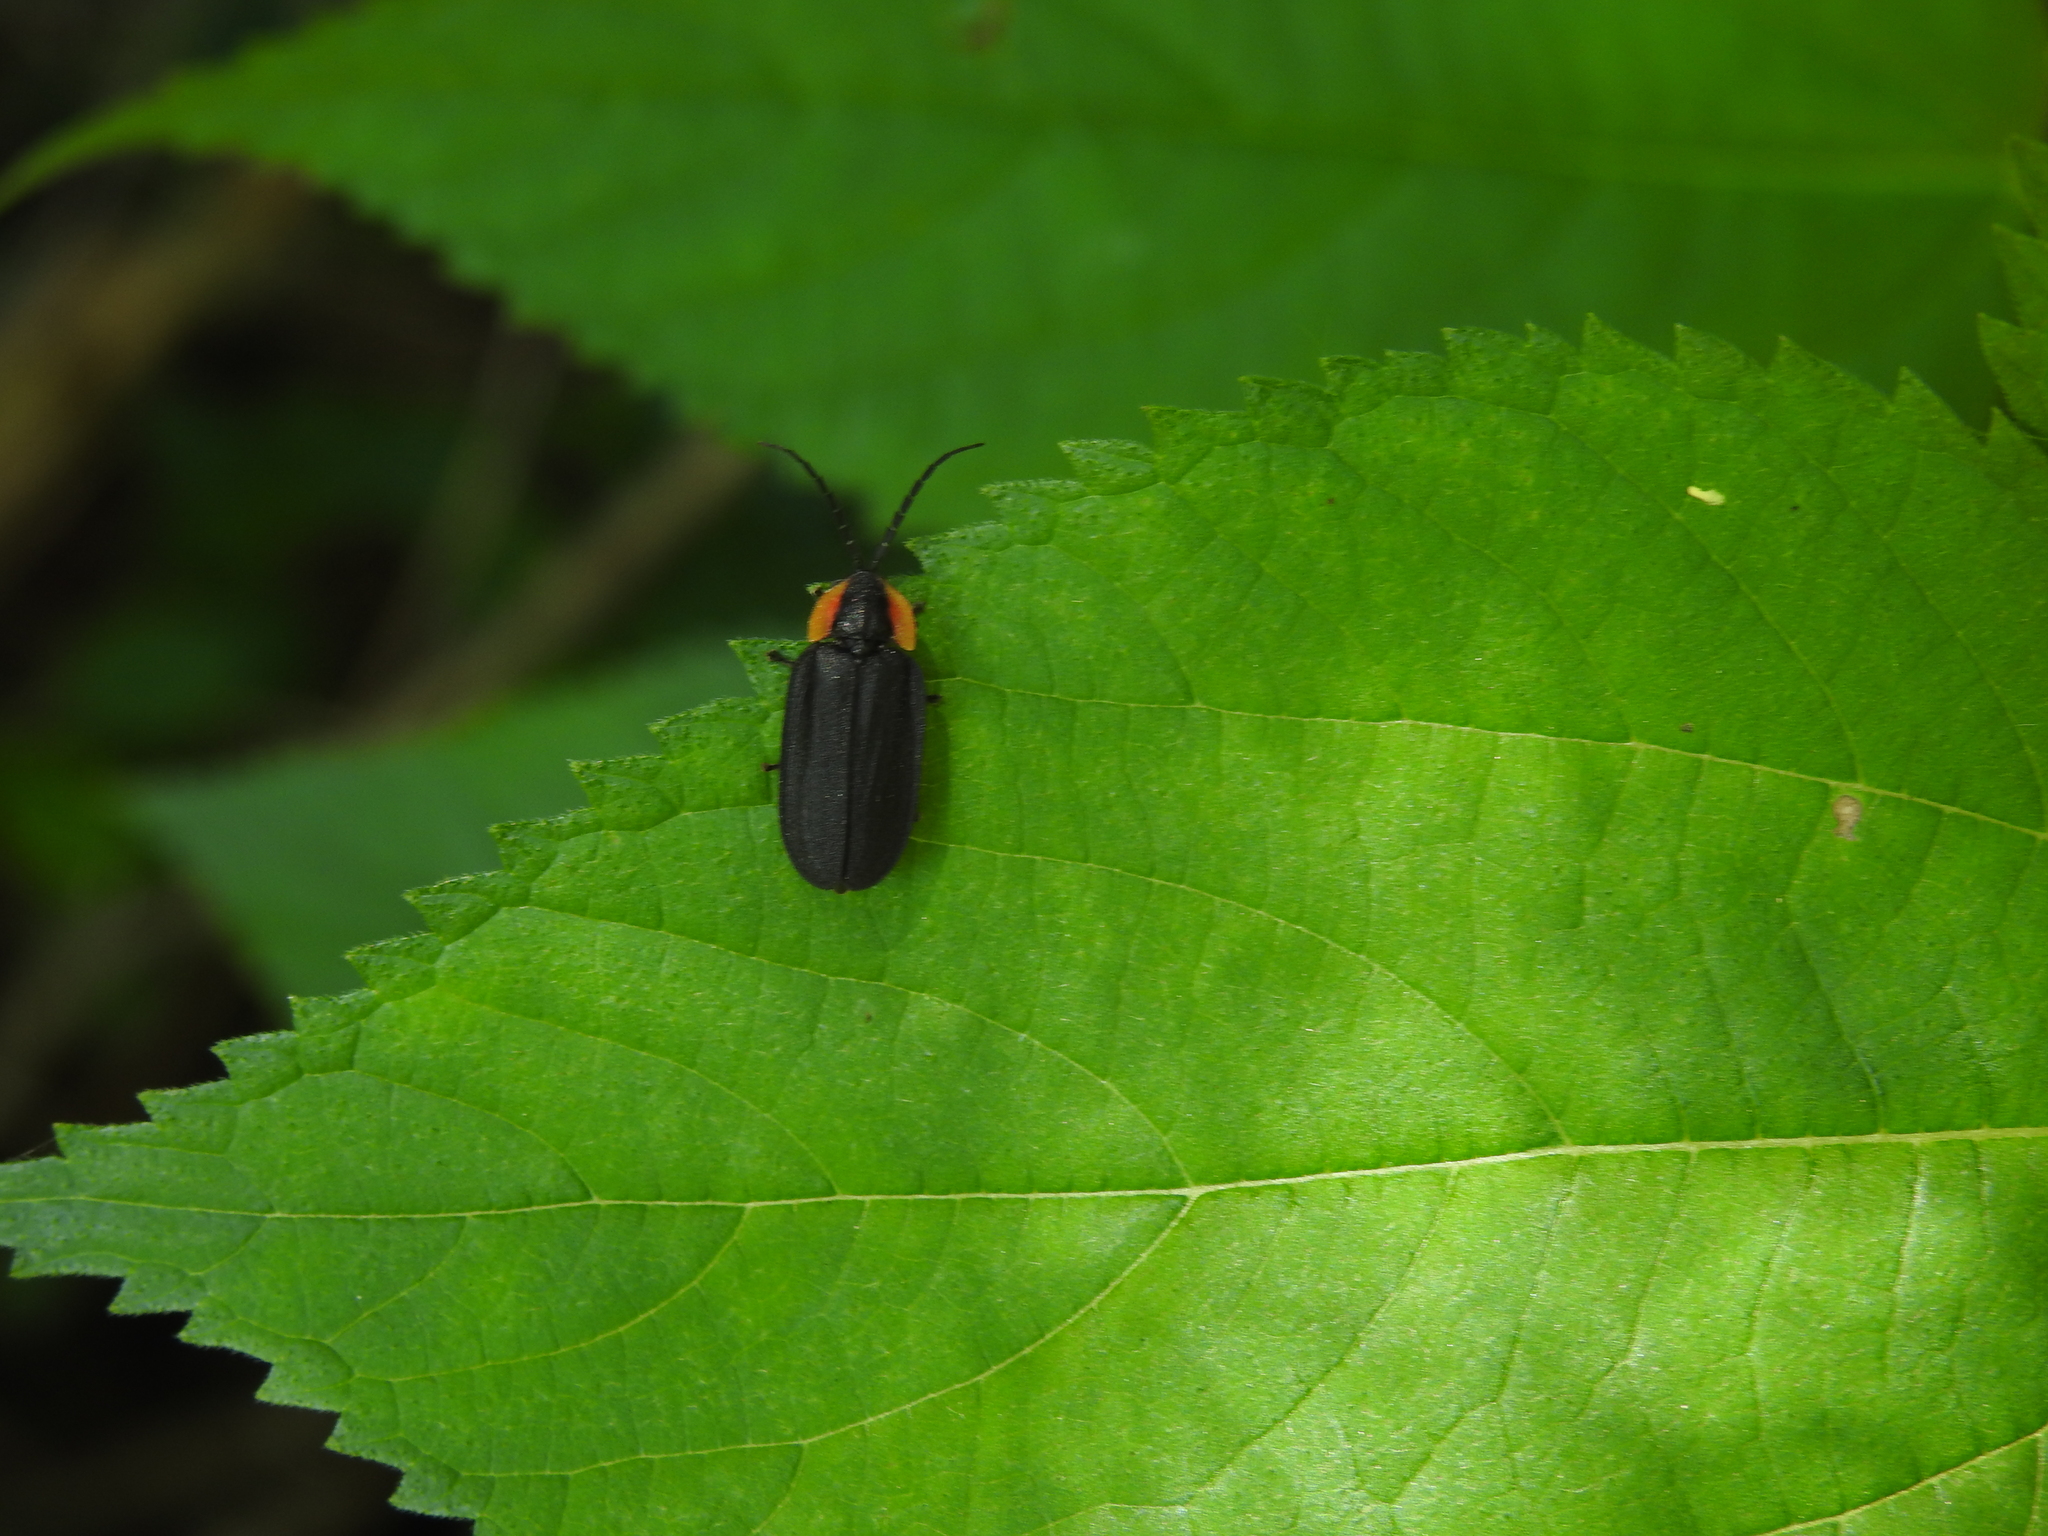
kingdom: Animalia
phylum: Arthropoda
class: Insecta
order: Coleoptera
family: Lampyridae
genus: Lucidota
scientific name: Lucidota atra
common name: Black firefly
